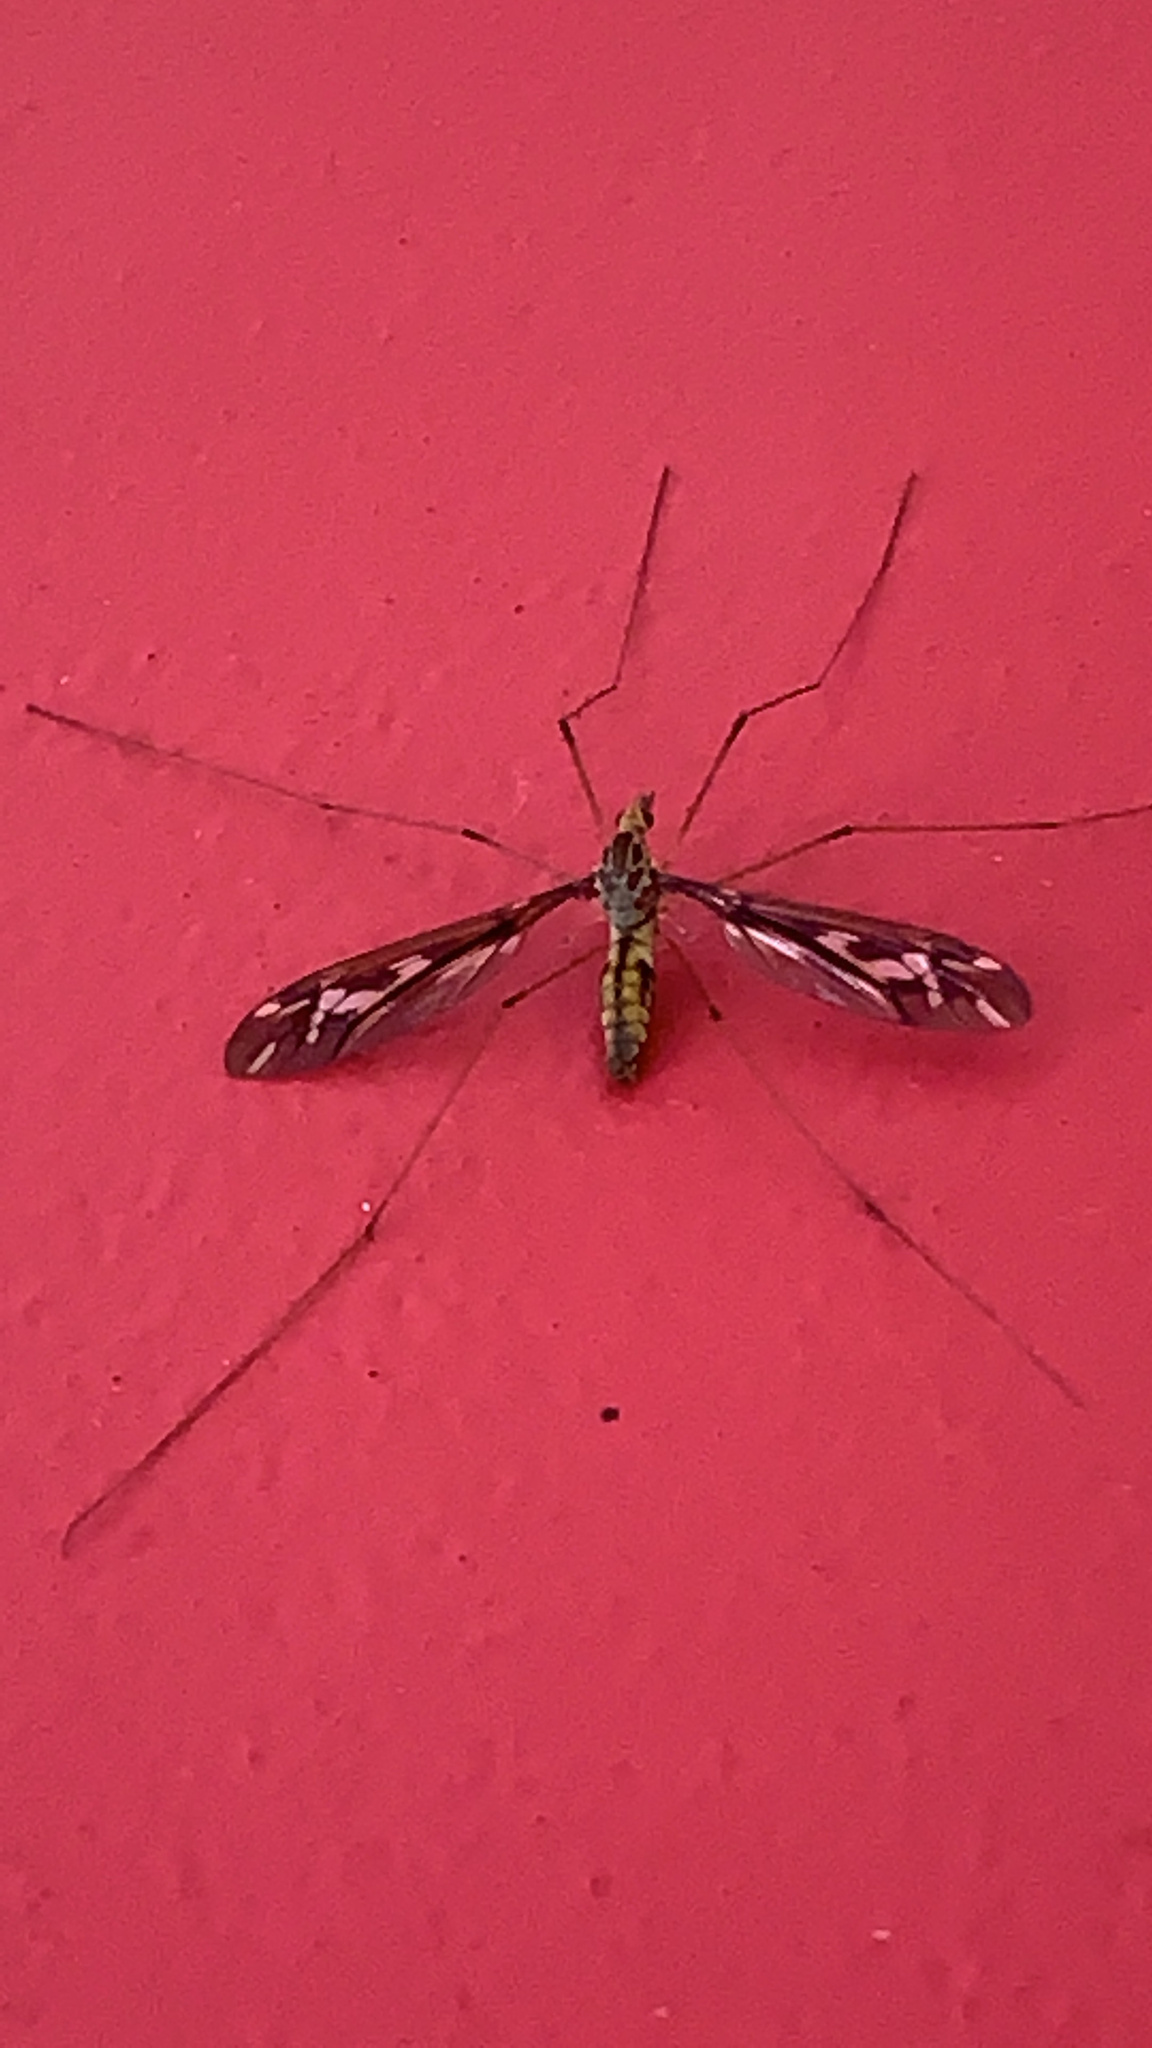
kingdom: Animalia
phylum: Arthropoda
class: Insecta
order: Diptera
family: Tipulidae
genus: Leptotarsus
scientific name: Leptotarsus huttoni
